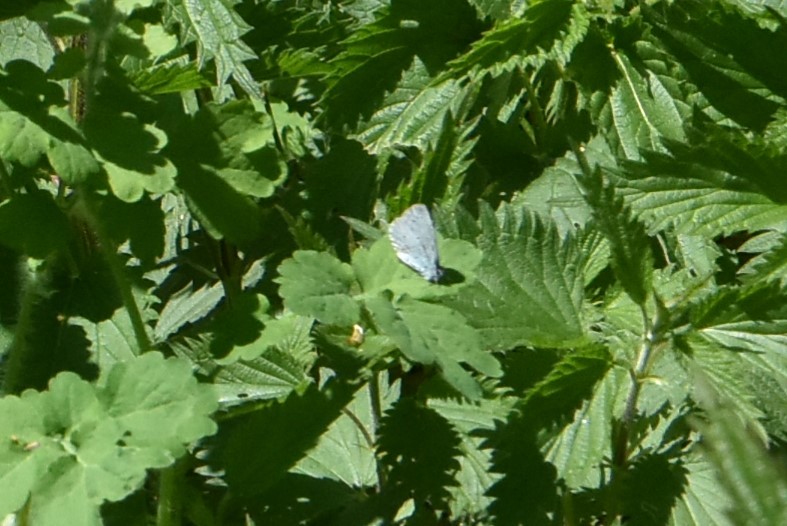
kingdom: Animalia
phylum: Arthropoda
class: Insecta
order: Lepidoptera
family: Lycaenidae
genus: Celastrina
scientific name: Celastrina argiolus
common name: Holly blue
